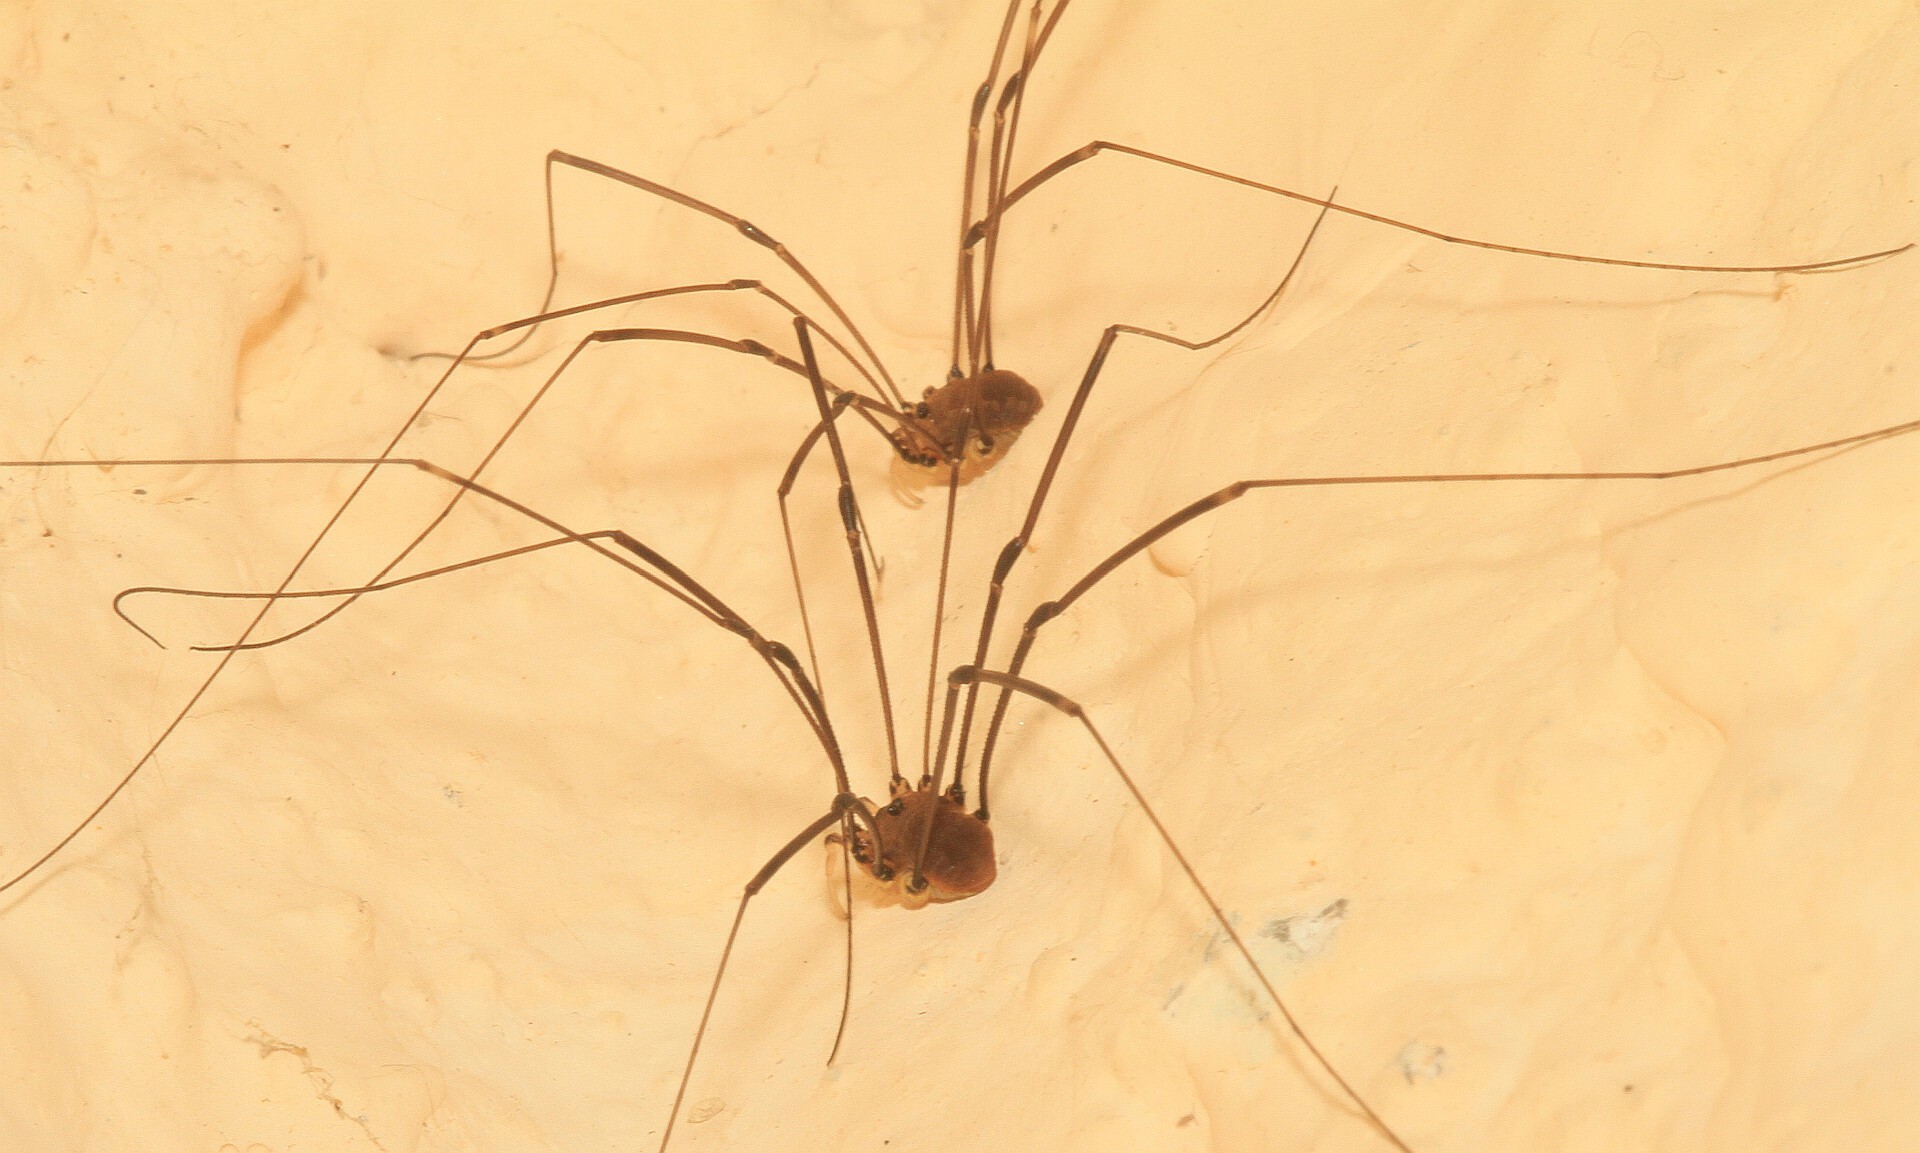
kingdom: Animalia
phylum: Arthropoda
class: Arachnida
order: Opiliones
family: Sclerosomatidae
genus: Leiobunum
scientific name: Leiobunum rotundum
